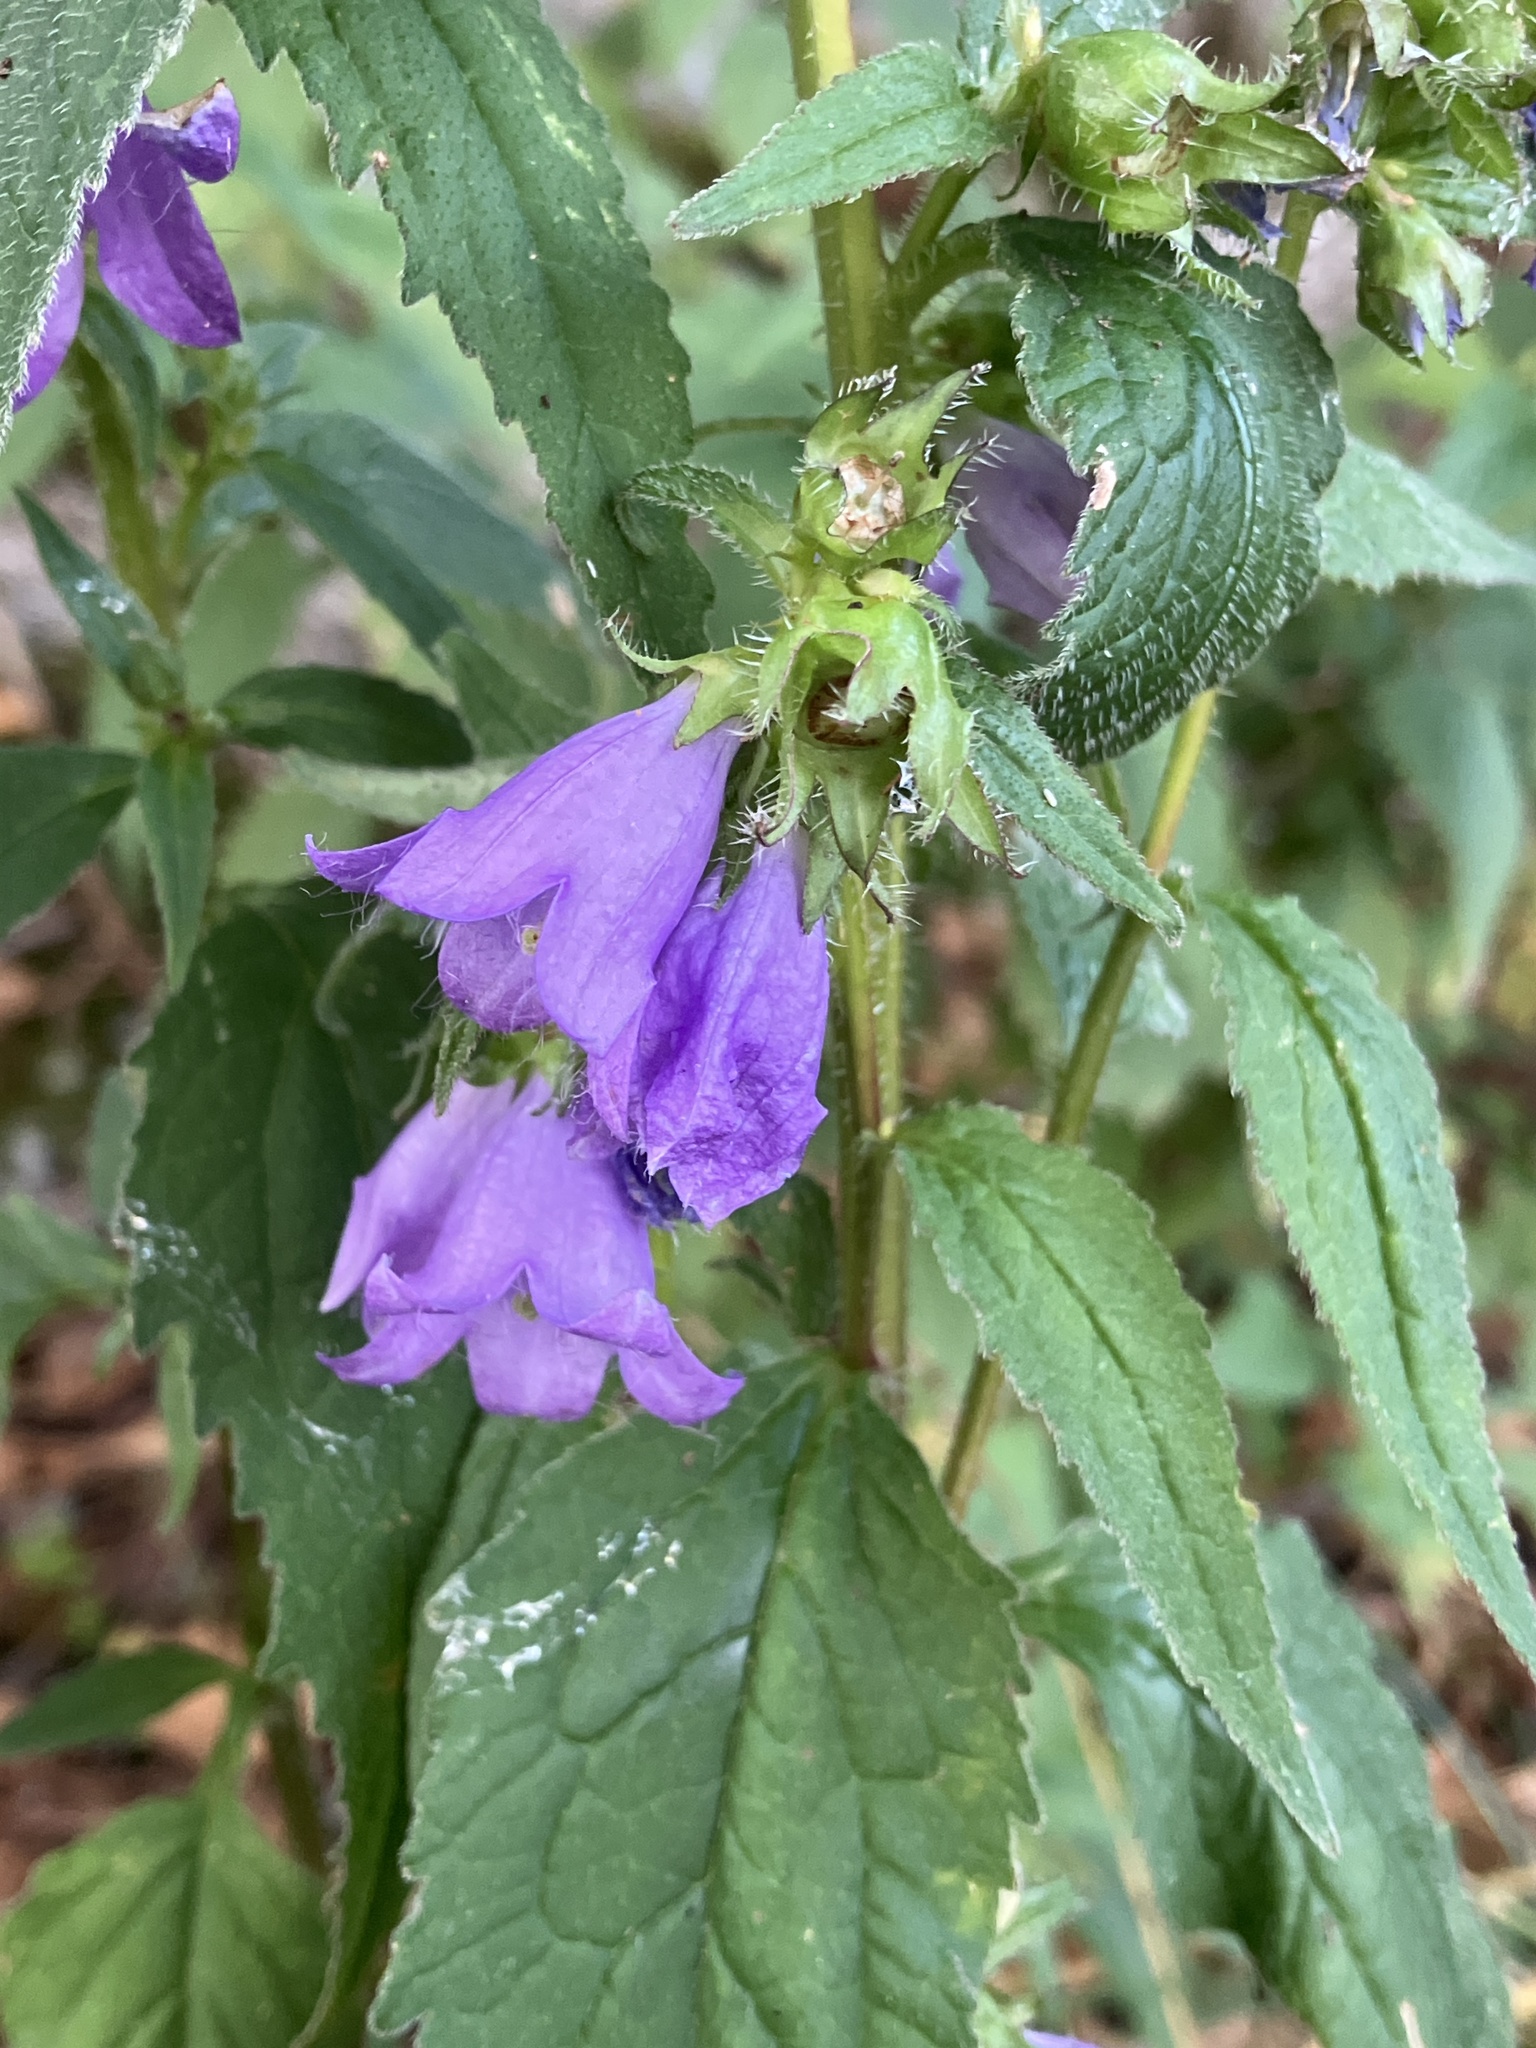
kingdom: Plantae
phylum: Tracheophyta
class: Magnoliopsida
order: Asterales
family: Campanulaceae
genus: Campanula
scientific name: Campanula trachelium
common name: Nettle-leaved bellflower
